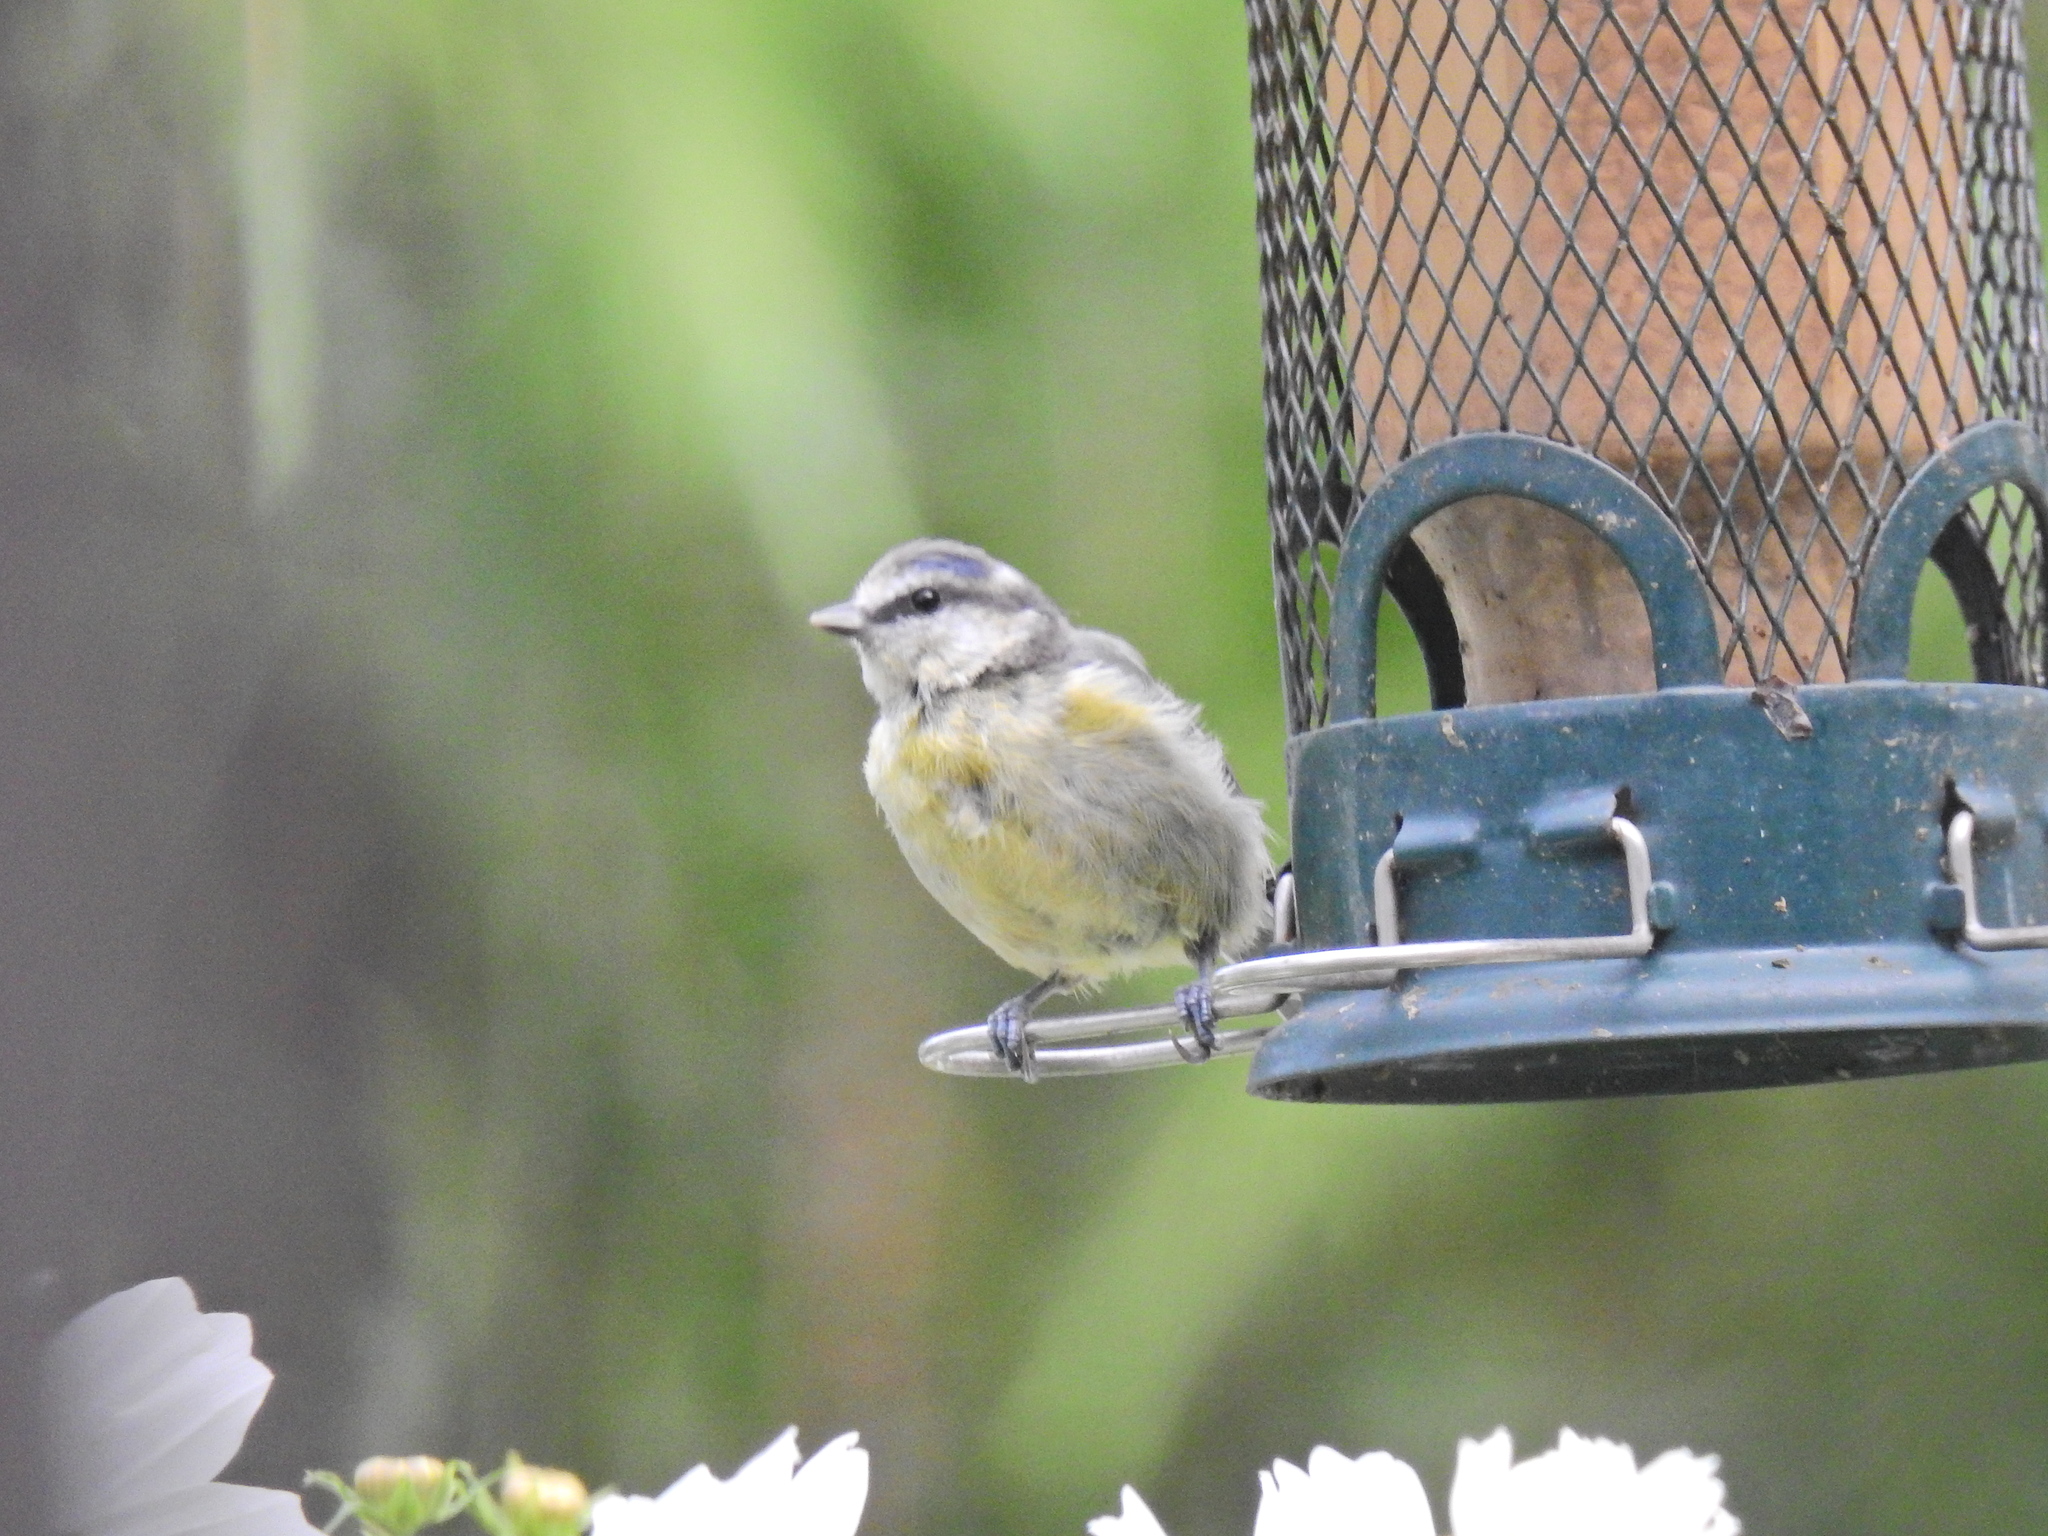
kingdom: Animalia
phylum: Chordata
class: Aves
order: Passeriformes
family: Paridae
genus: Cyanistes
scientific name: Cyanistes caeruleus
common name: Eurasian blue tit
